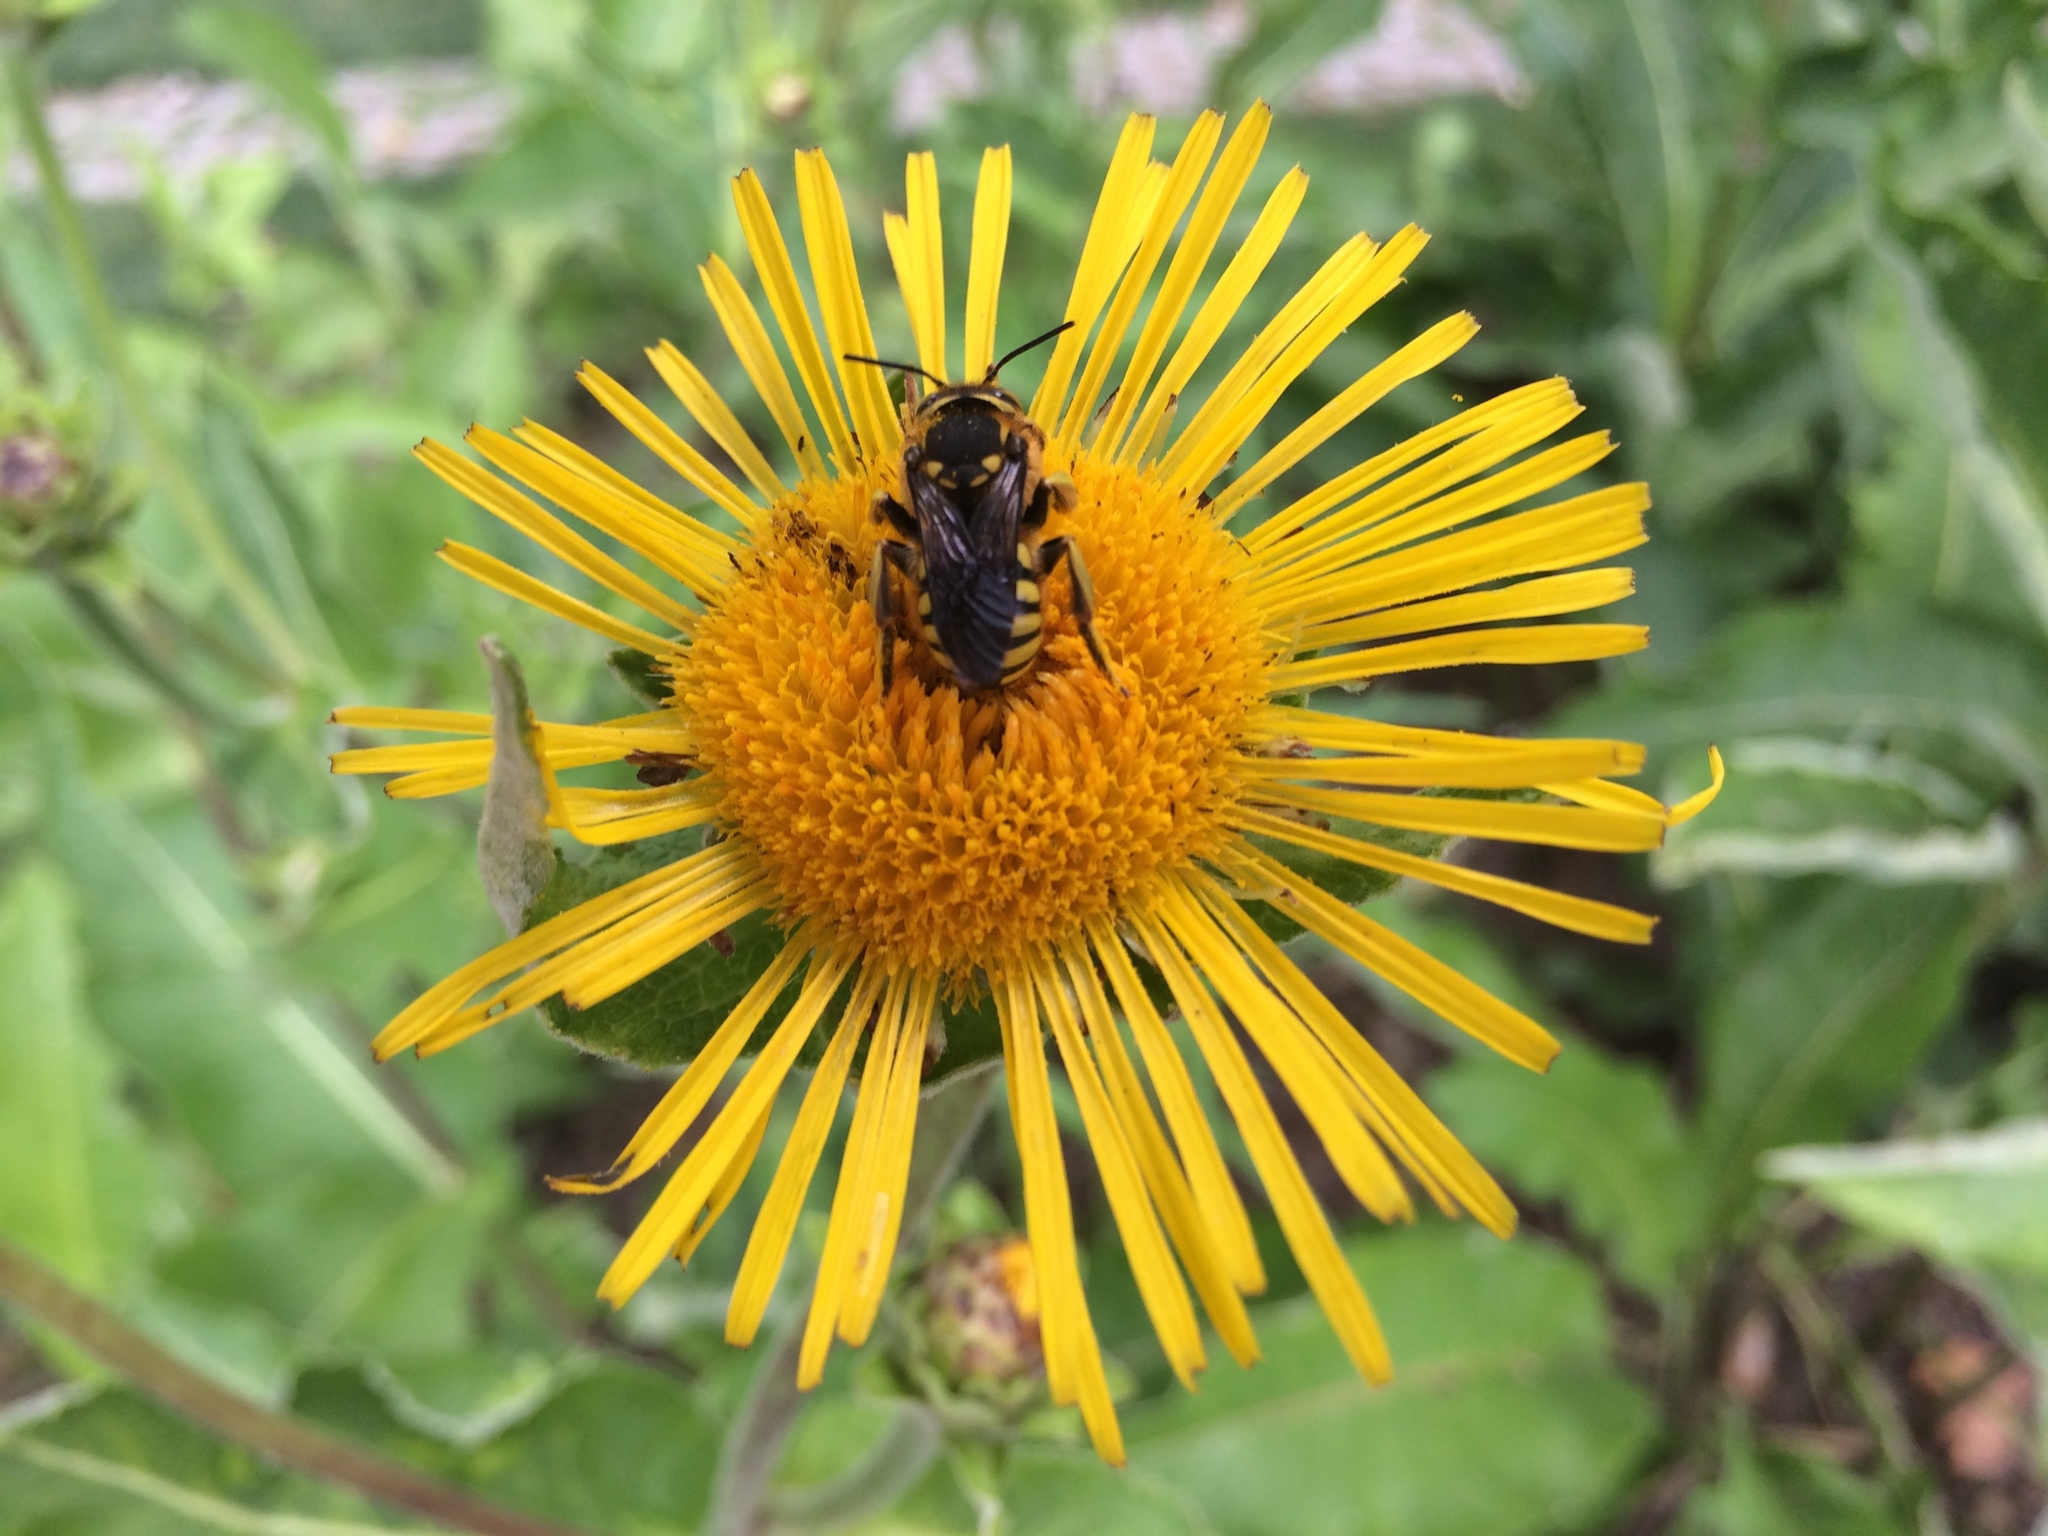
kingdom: Animalia
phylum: Arthropoda
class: Insecta
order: Hymenoptera
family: Megachilidae
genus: Anthidium
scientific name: Anthidium florentinum
